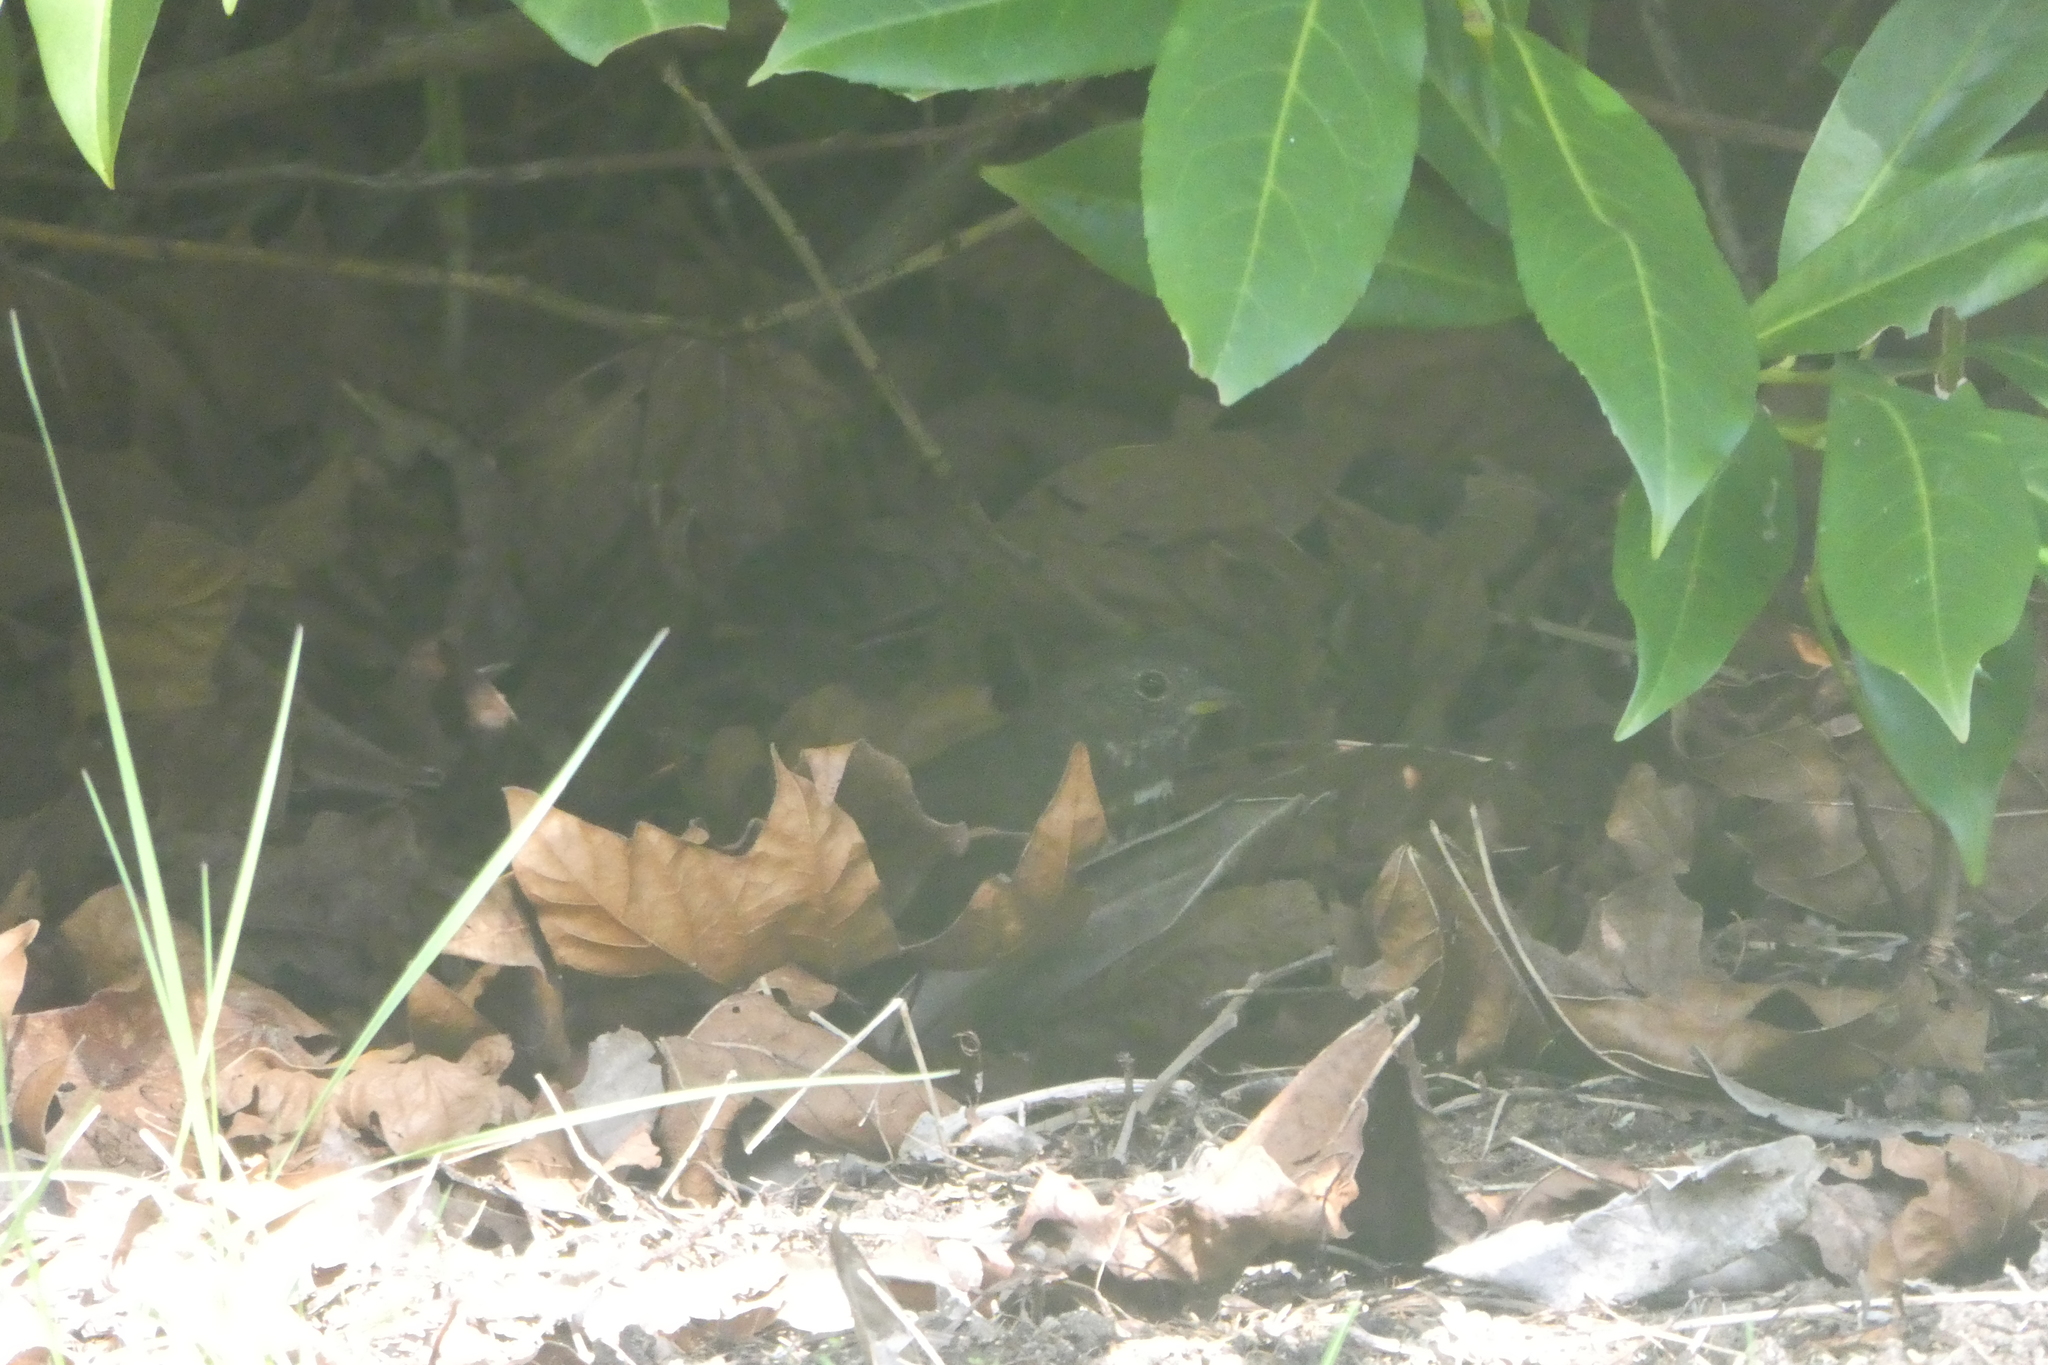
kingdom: Animalia
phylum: Chordata
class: Aves
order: Passeriformes
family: Passerellidae
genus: Passerella
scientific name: Passerella iliaca
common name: Fox sparrow
